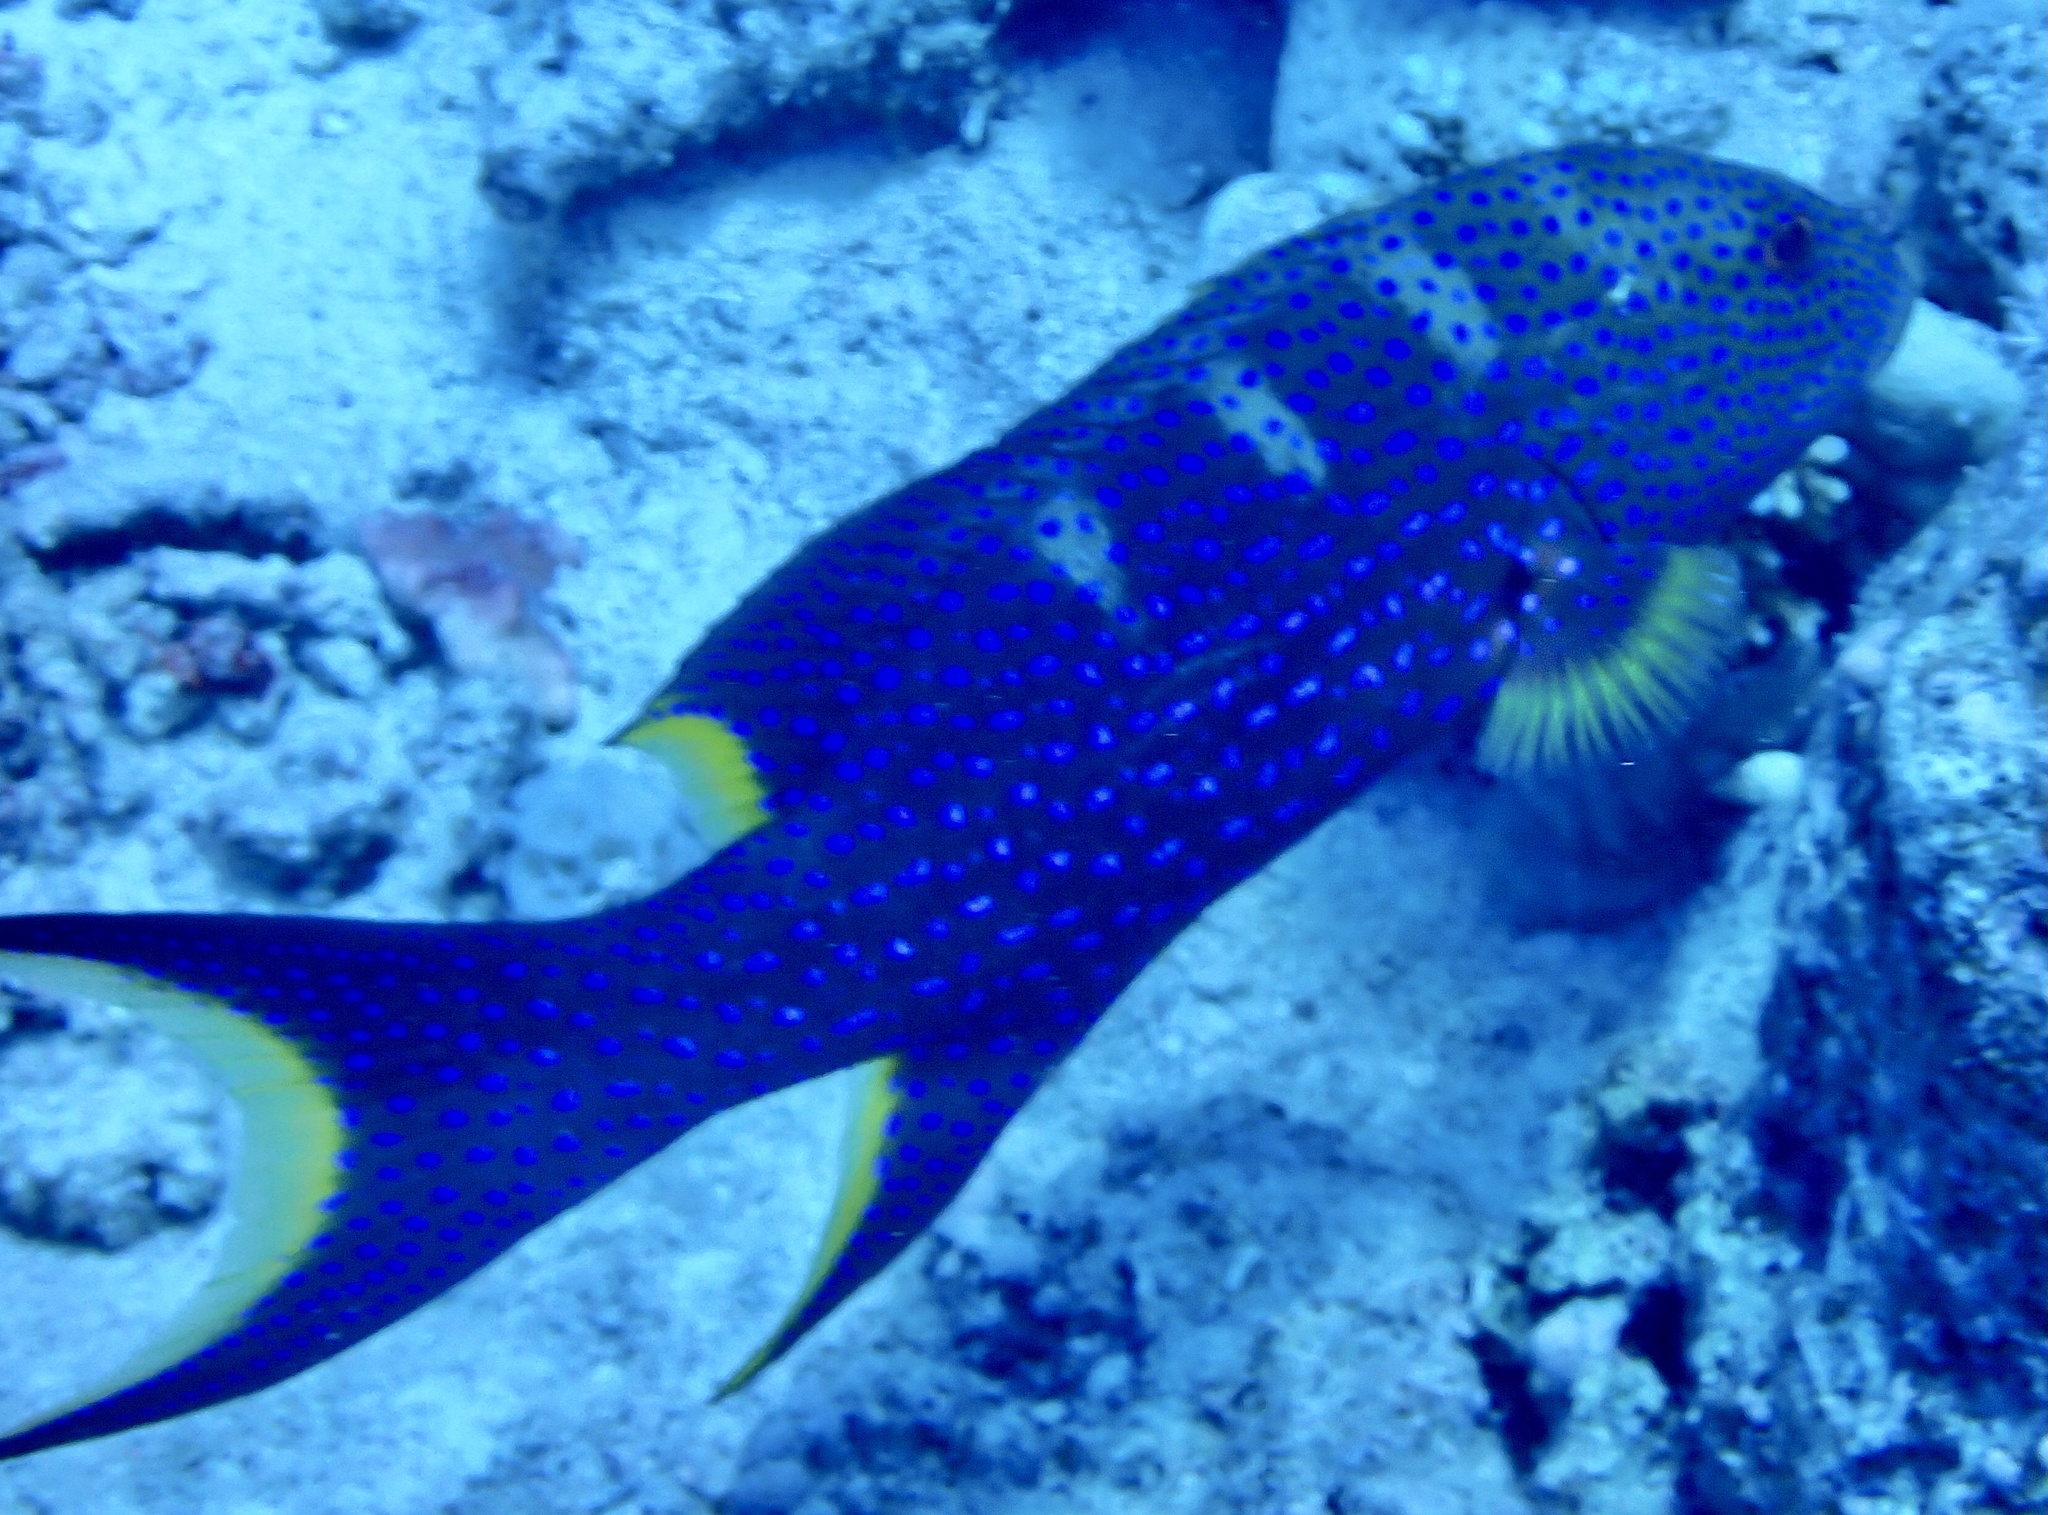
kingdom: Animalia
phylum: Chordata
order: Perciformes
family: Serranidae
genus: Variola
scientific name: Variola louti
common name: Yellow-edged lyretail
